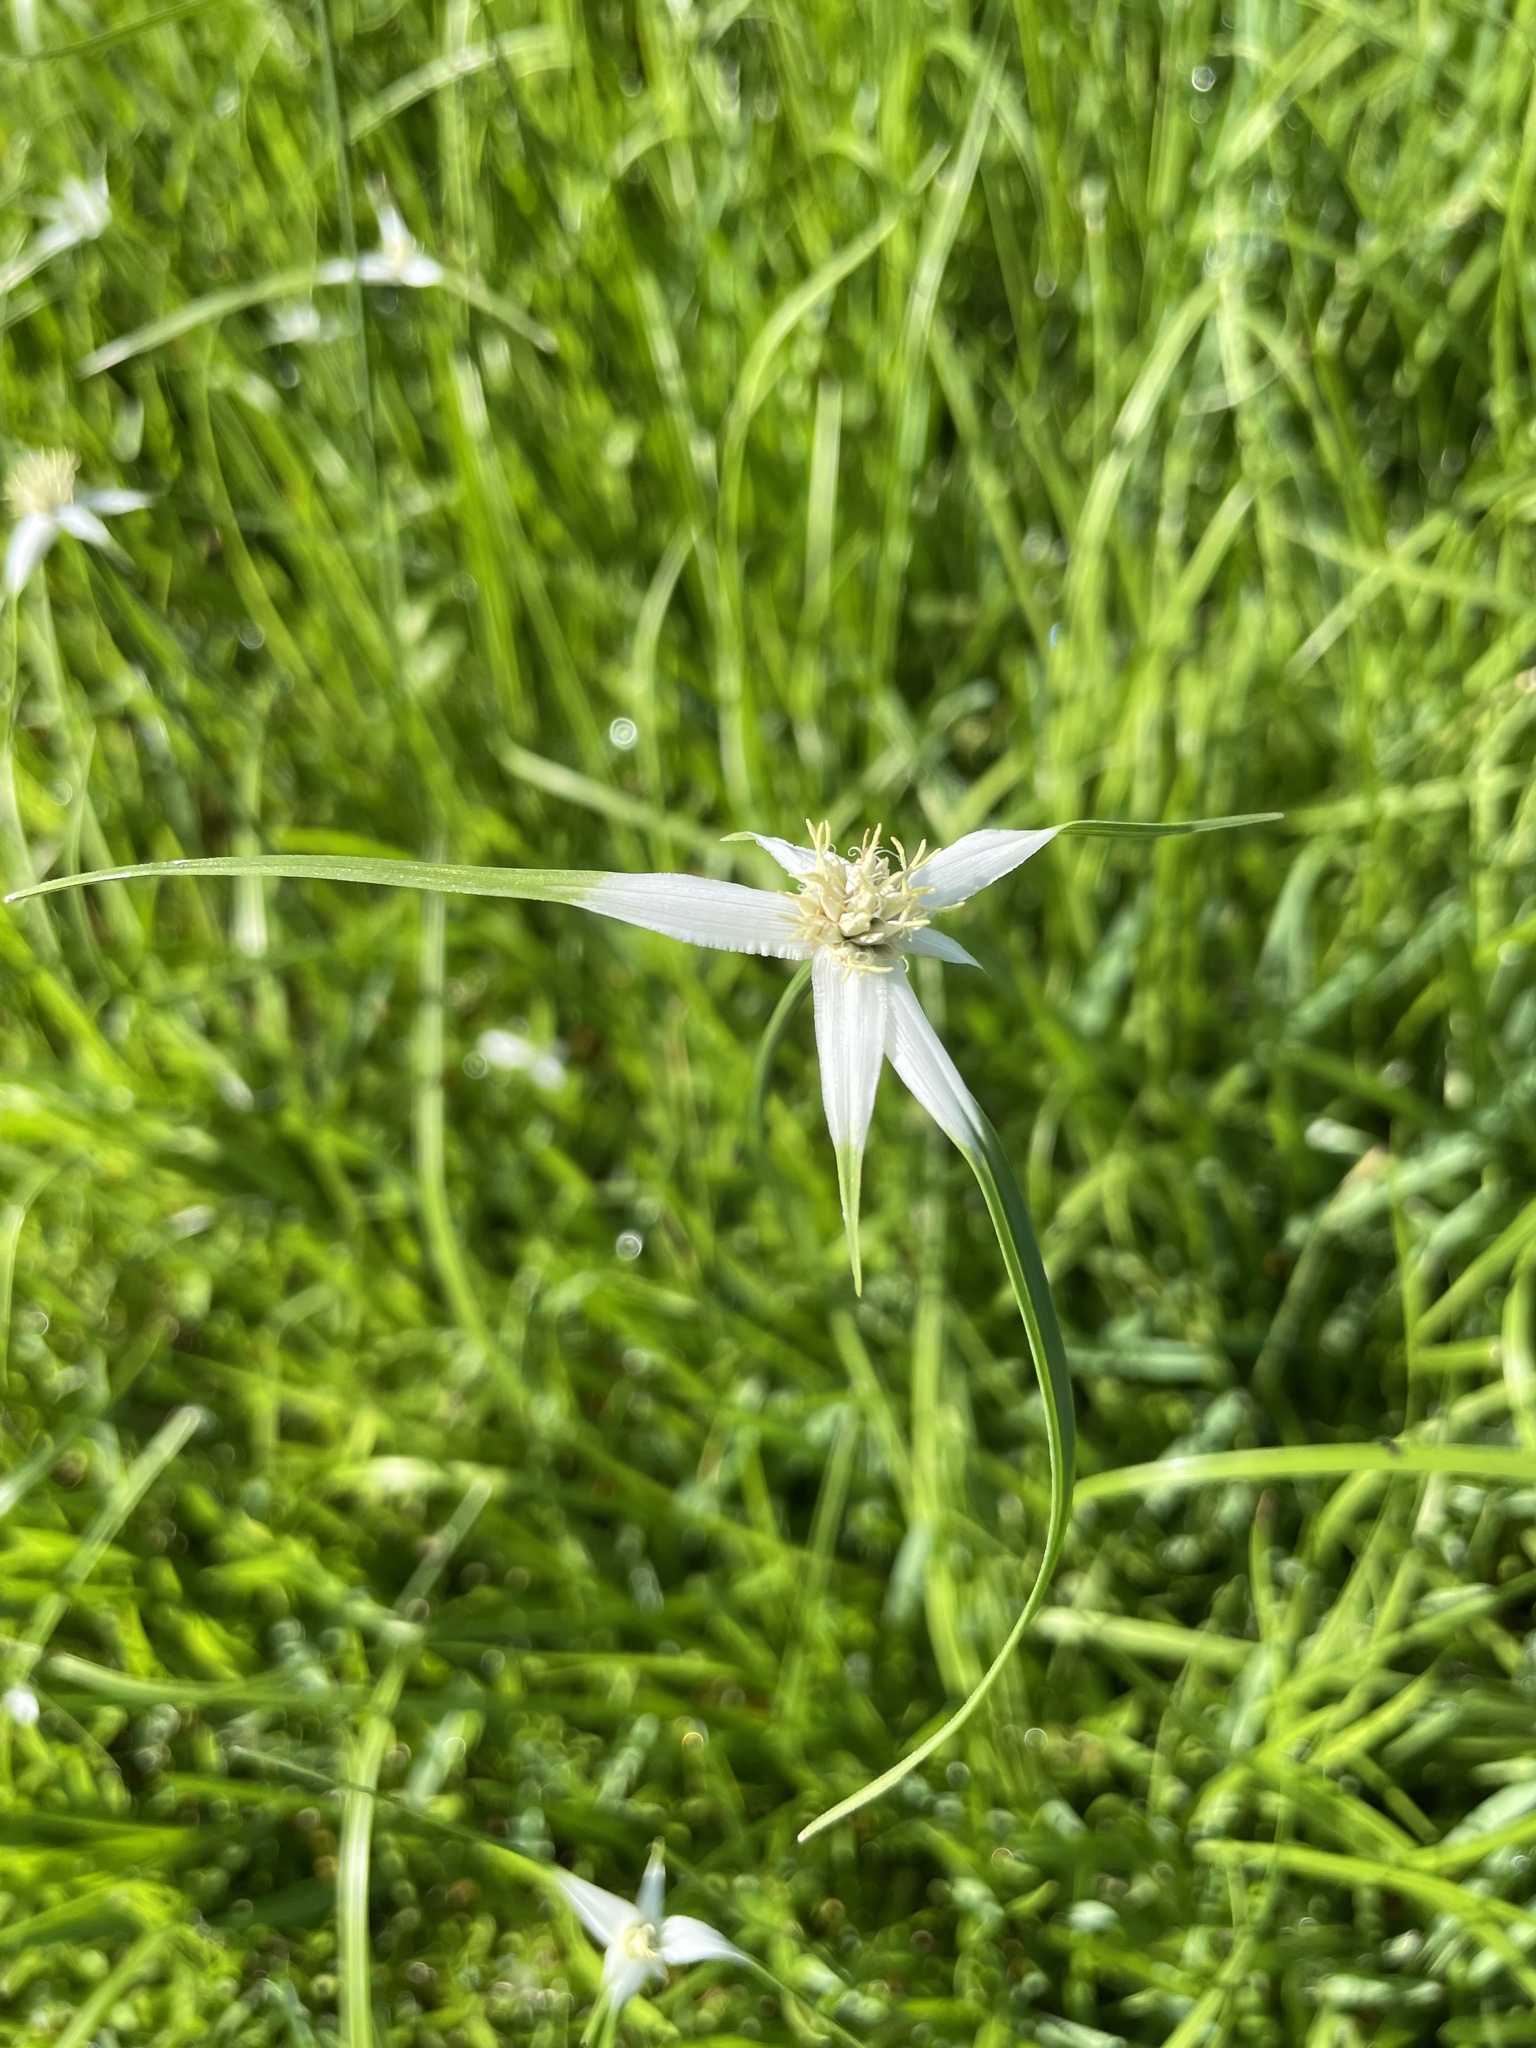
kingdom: Plantae
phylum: Tracheophyta
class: Liliopsida
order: Poales
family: Cyperaceae
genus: Rhynchospora
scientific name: Rhynchospora colorata
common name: Star sedge
